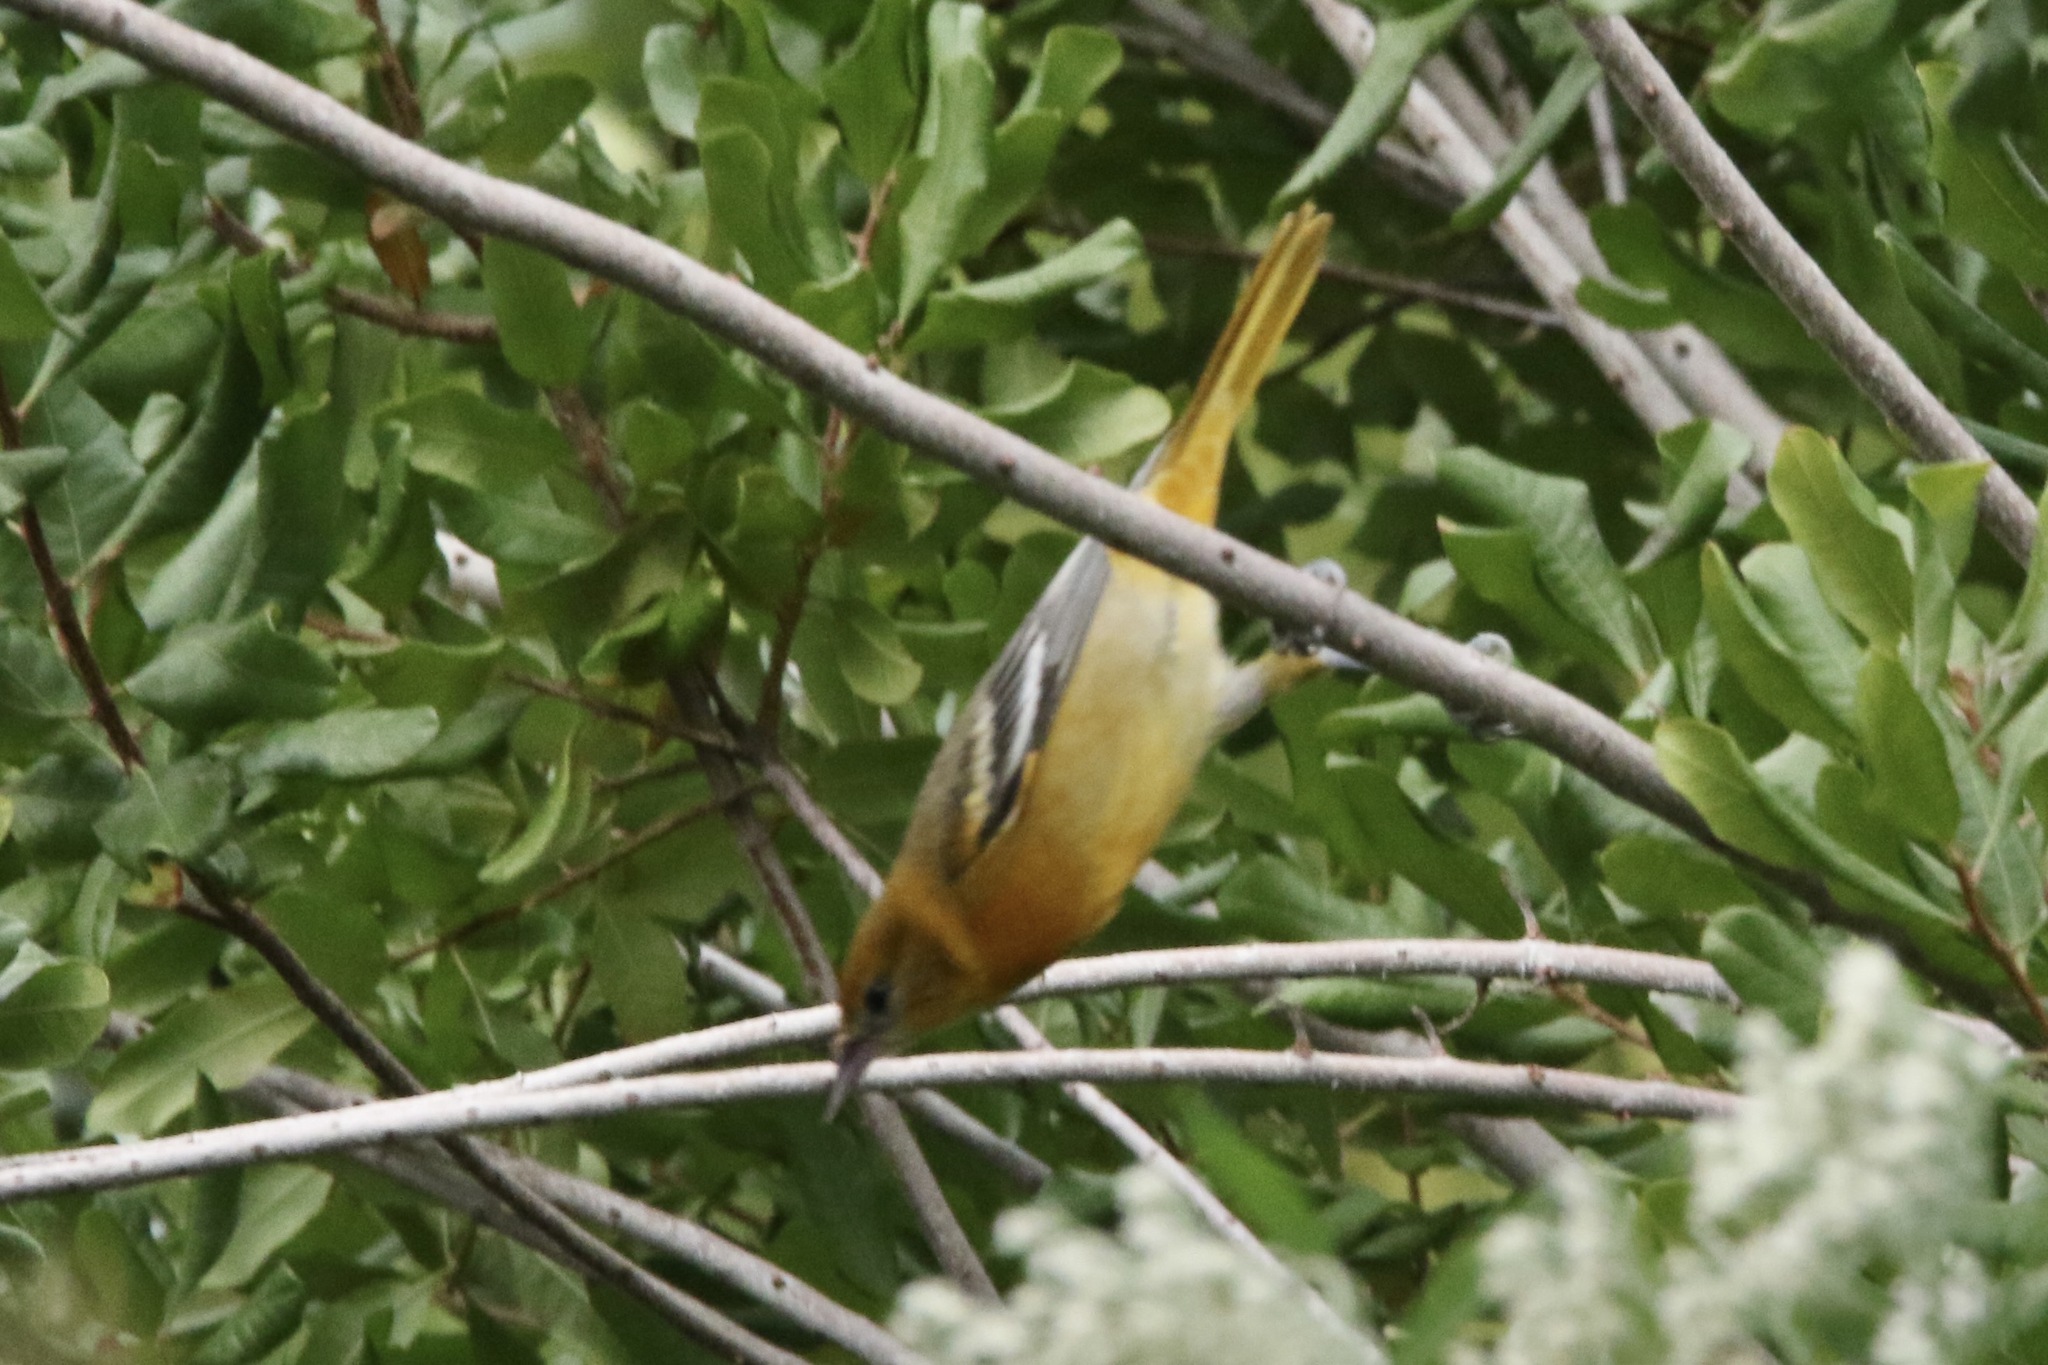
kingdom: Animalia
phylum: Chordata
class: Aves
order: Passeriformes
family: Icteridae
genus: Icterus
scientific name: Icterus galbula
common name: Baltimore oriole
